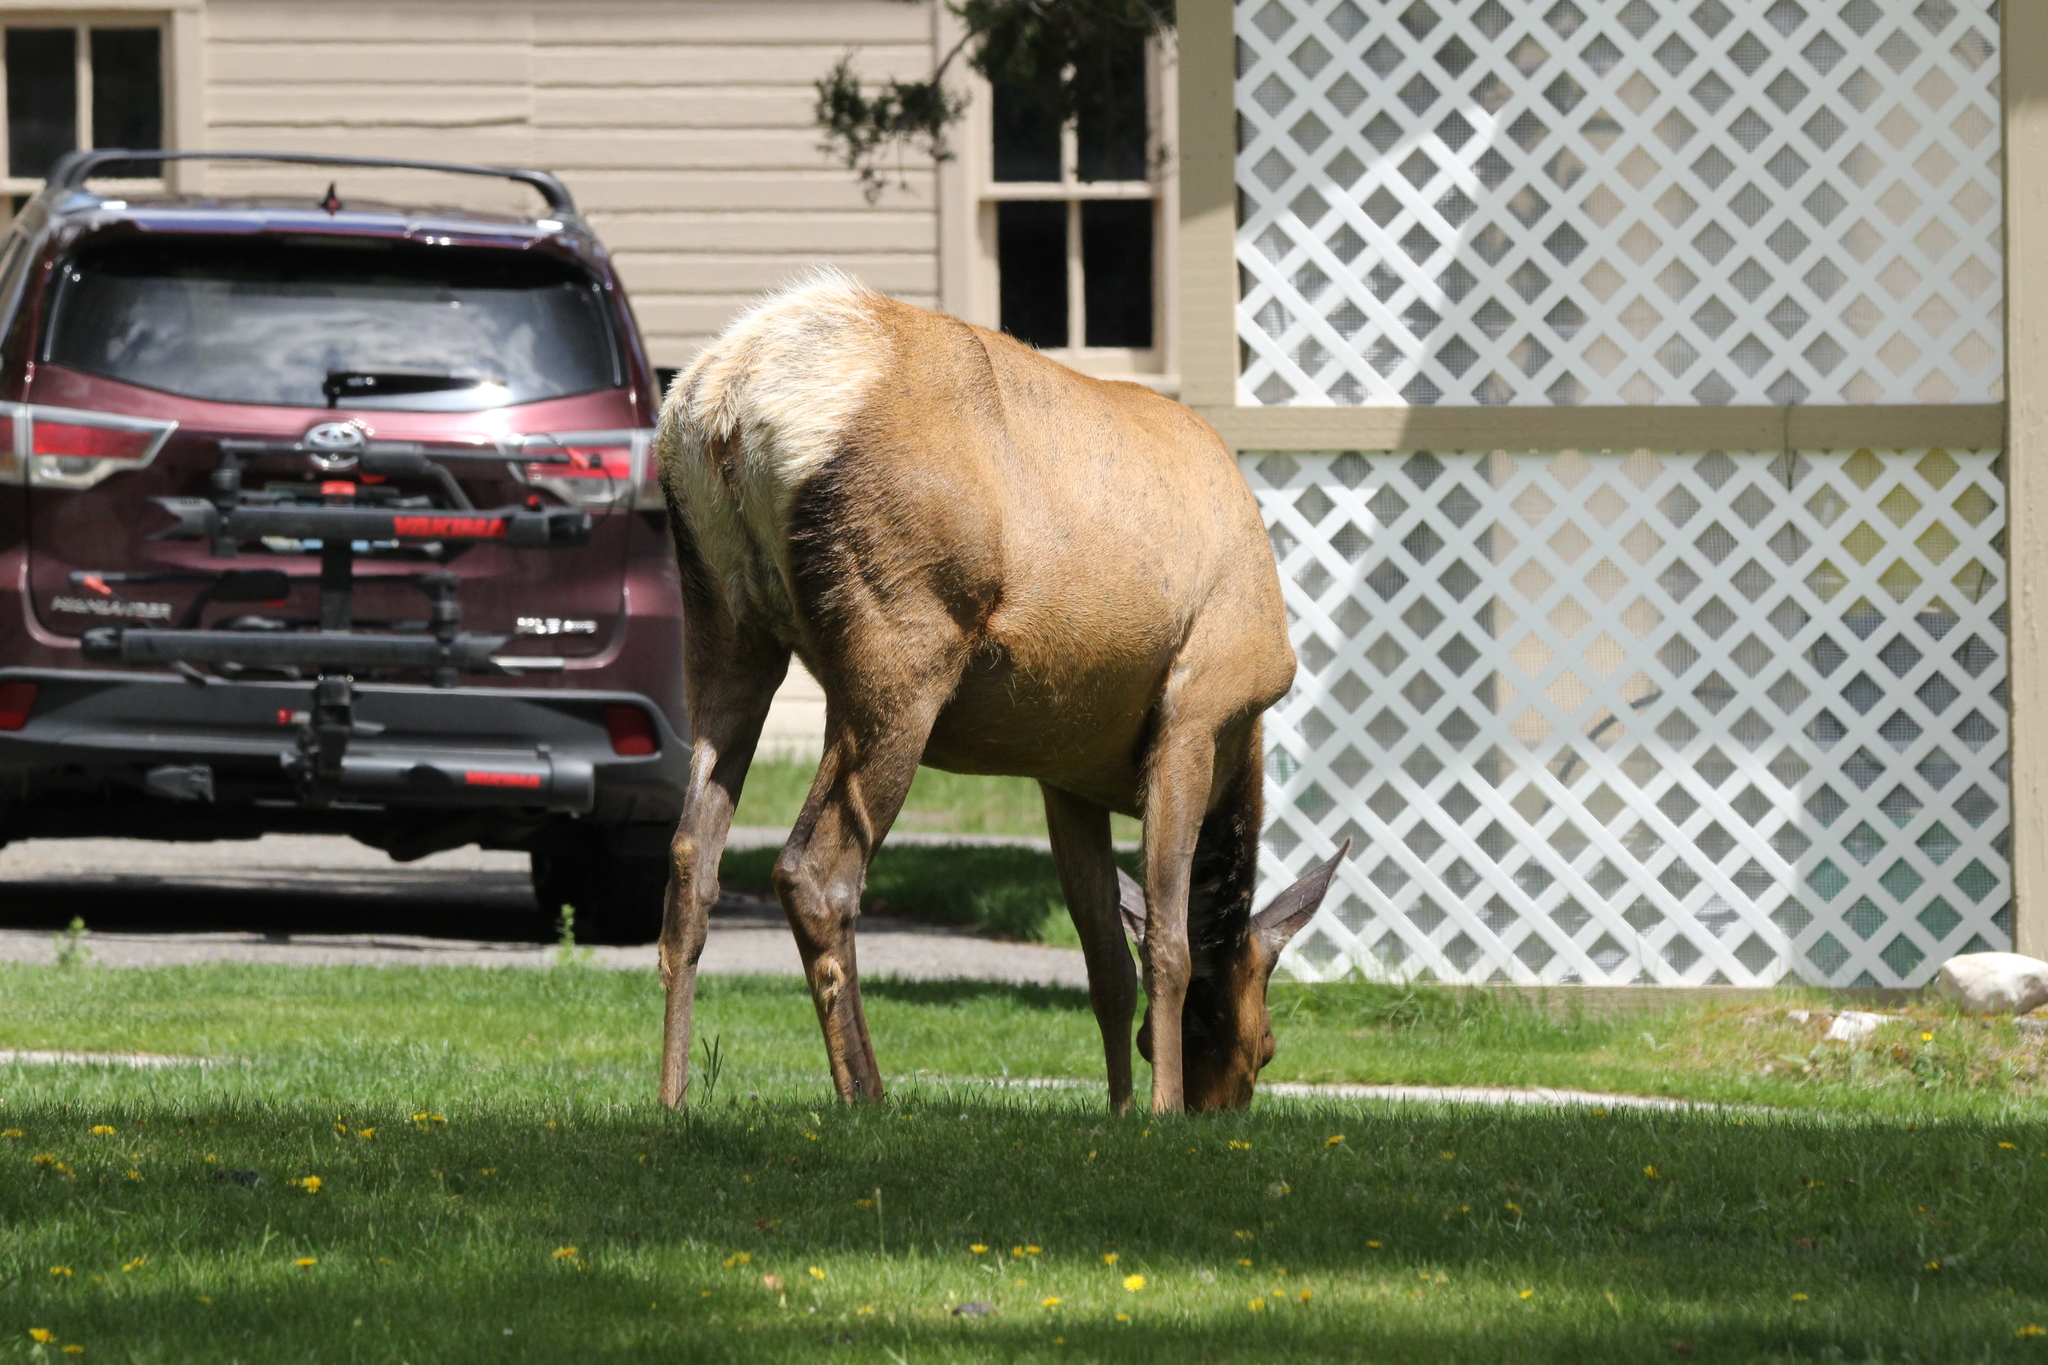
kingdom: Animalia
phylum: Chordata
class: Mammalia
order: Artiodactyla
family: Cervidae
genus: Cervus
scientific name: Cervus elaphus
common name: Red deer
